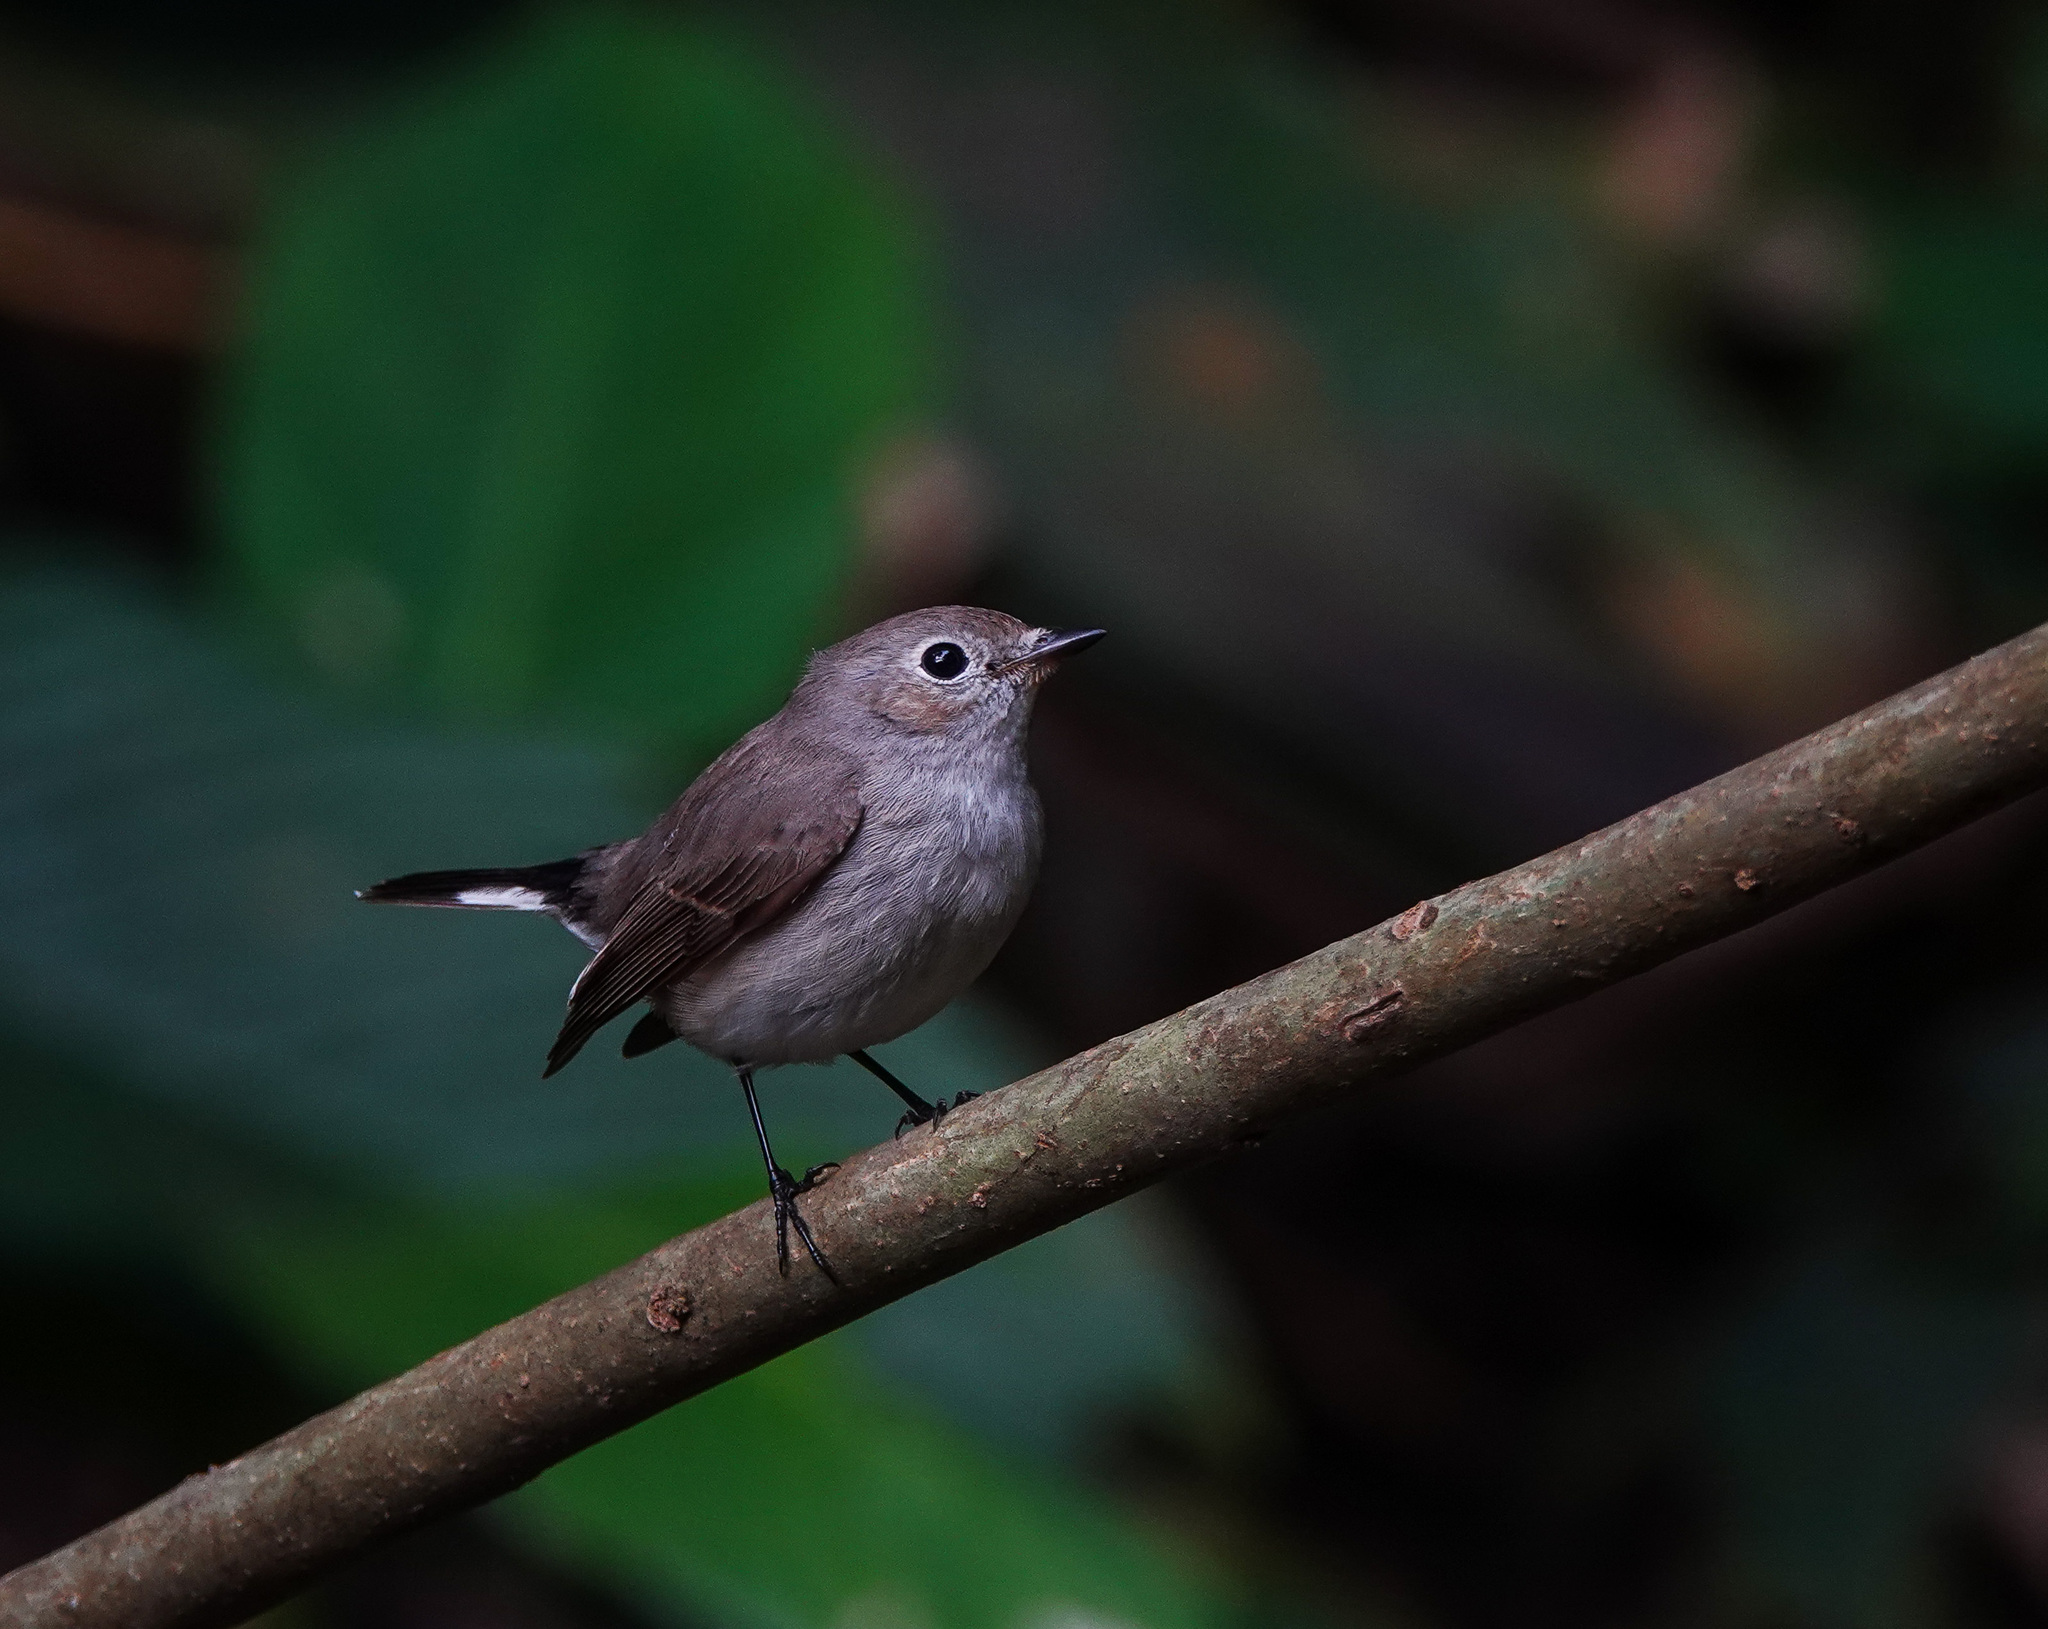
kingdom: Animalia
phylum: Chordata
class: Aves
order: Passeriformes
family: Muscicapidae
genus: Ficedula
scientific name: Ficedula albicilla
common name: Taiga flycatcher
